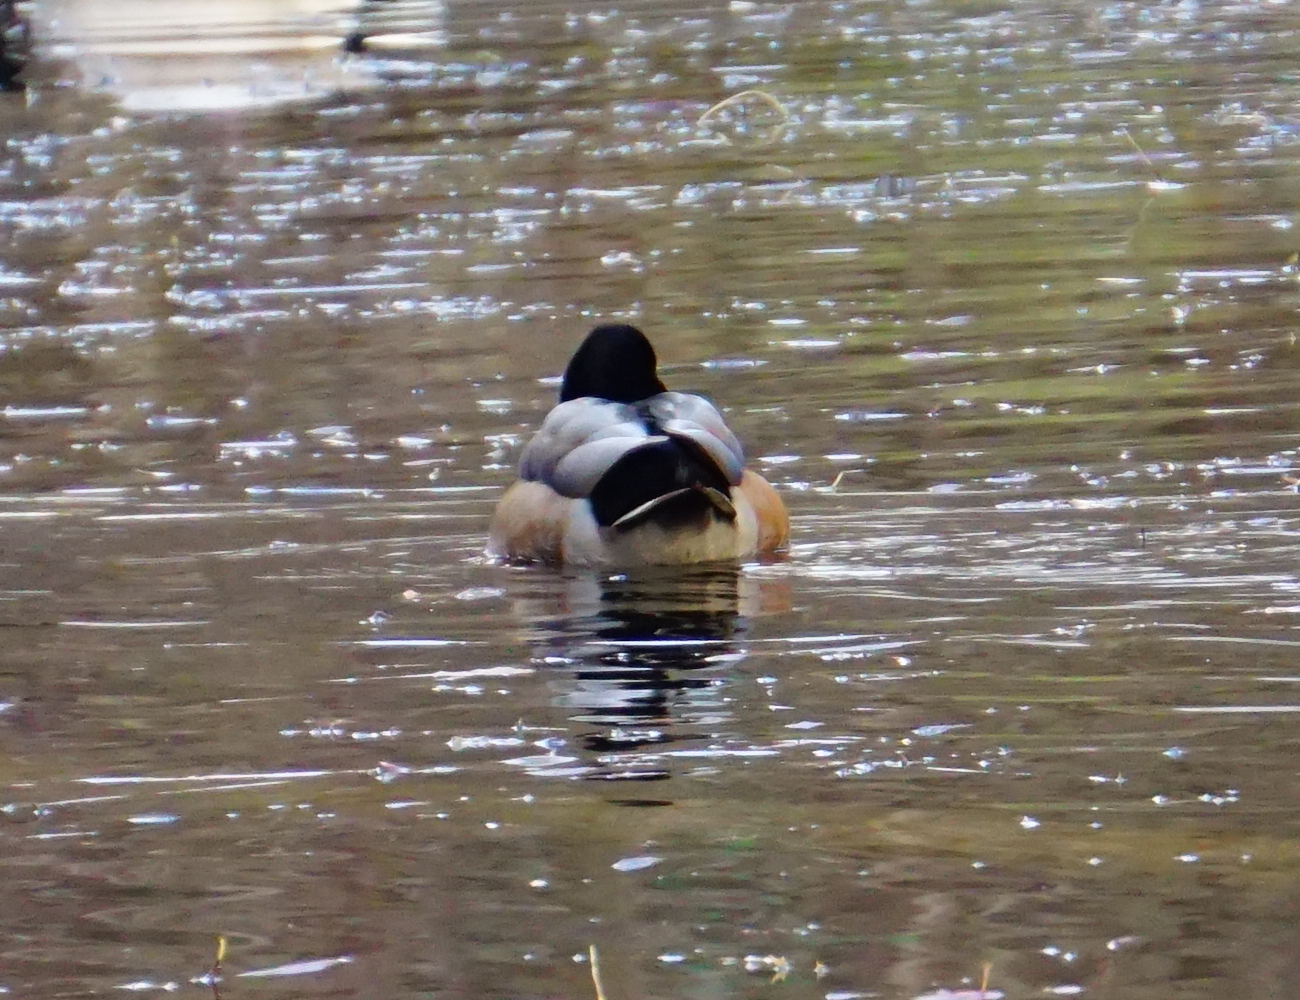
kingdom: Animalia
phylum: Chordata
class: Aves
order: Anseriformes
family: Anatidae
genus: Anas
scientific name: Anas platyrhynchos
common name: Mallard
